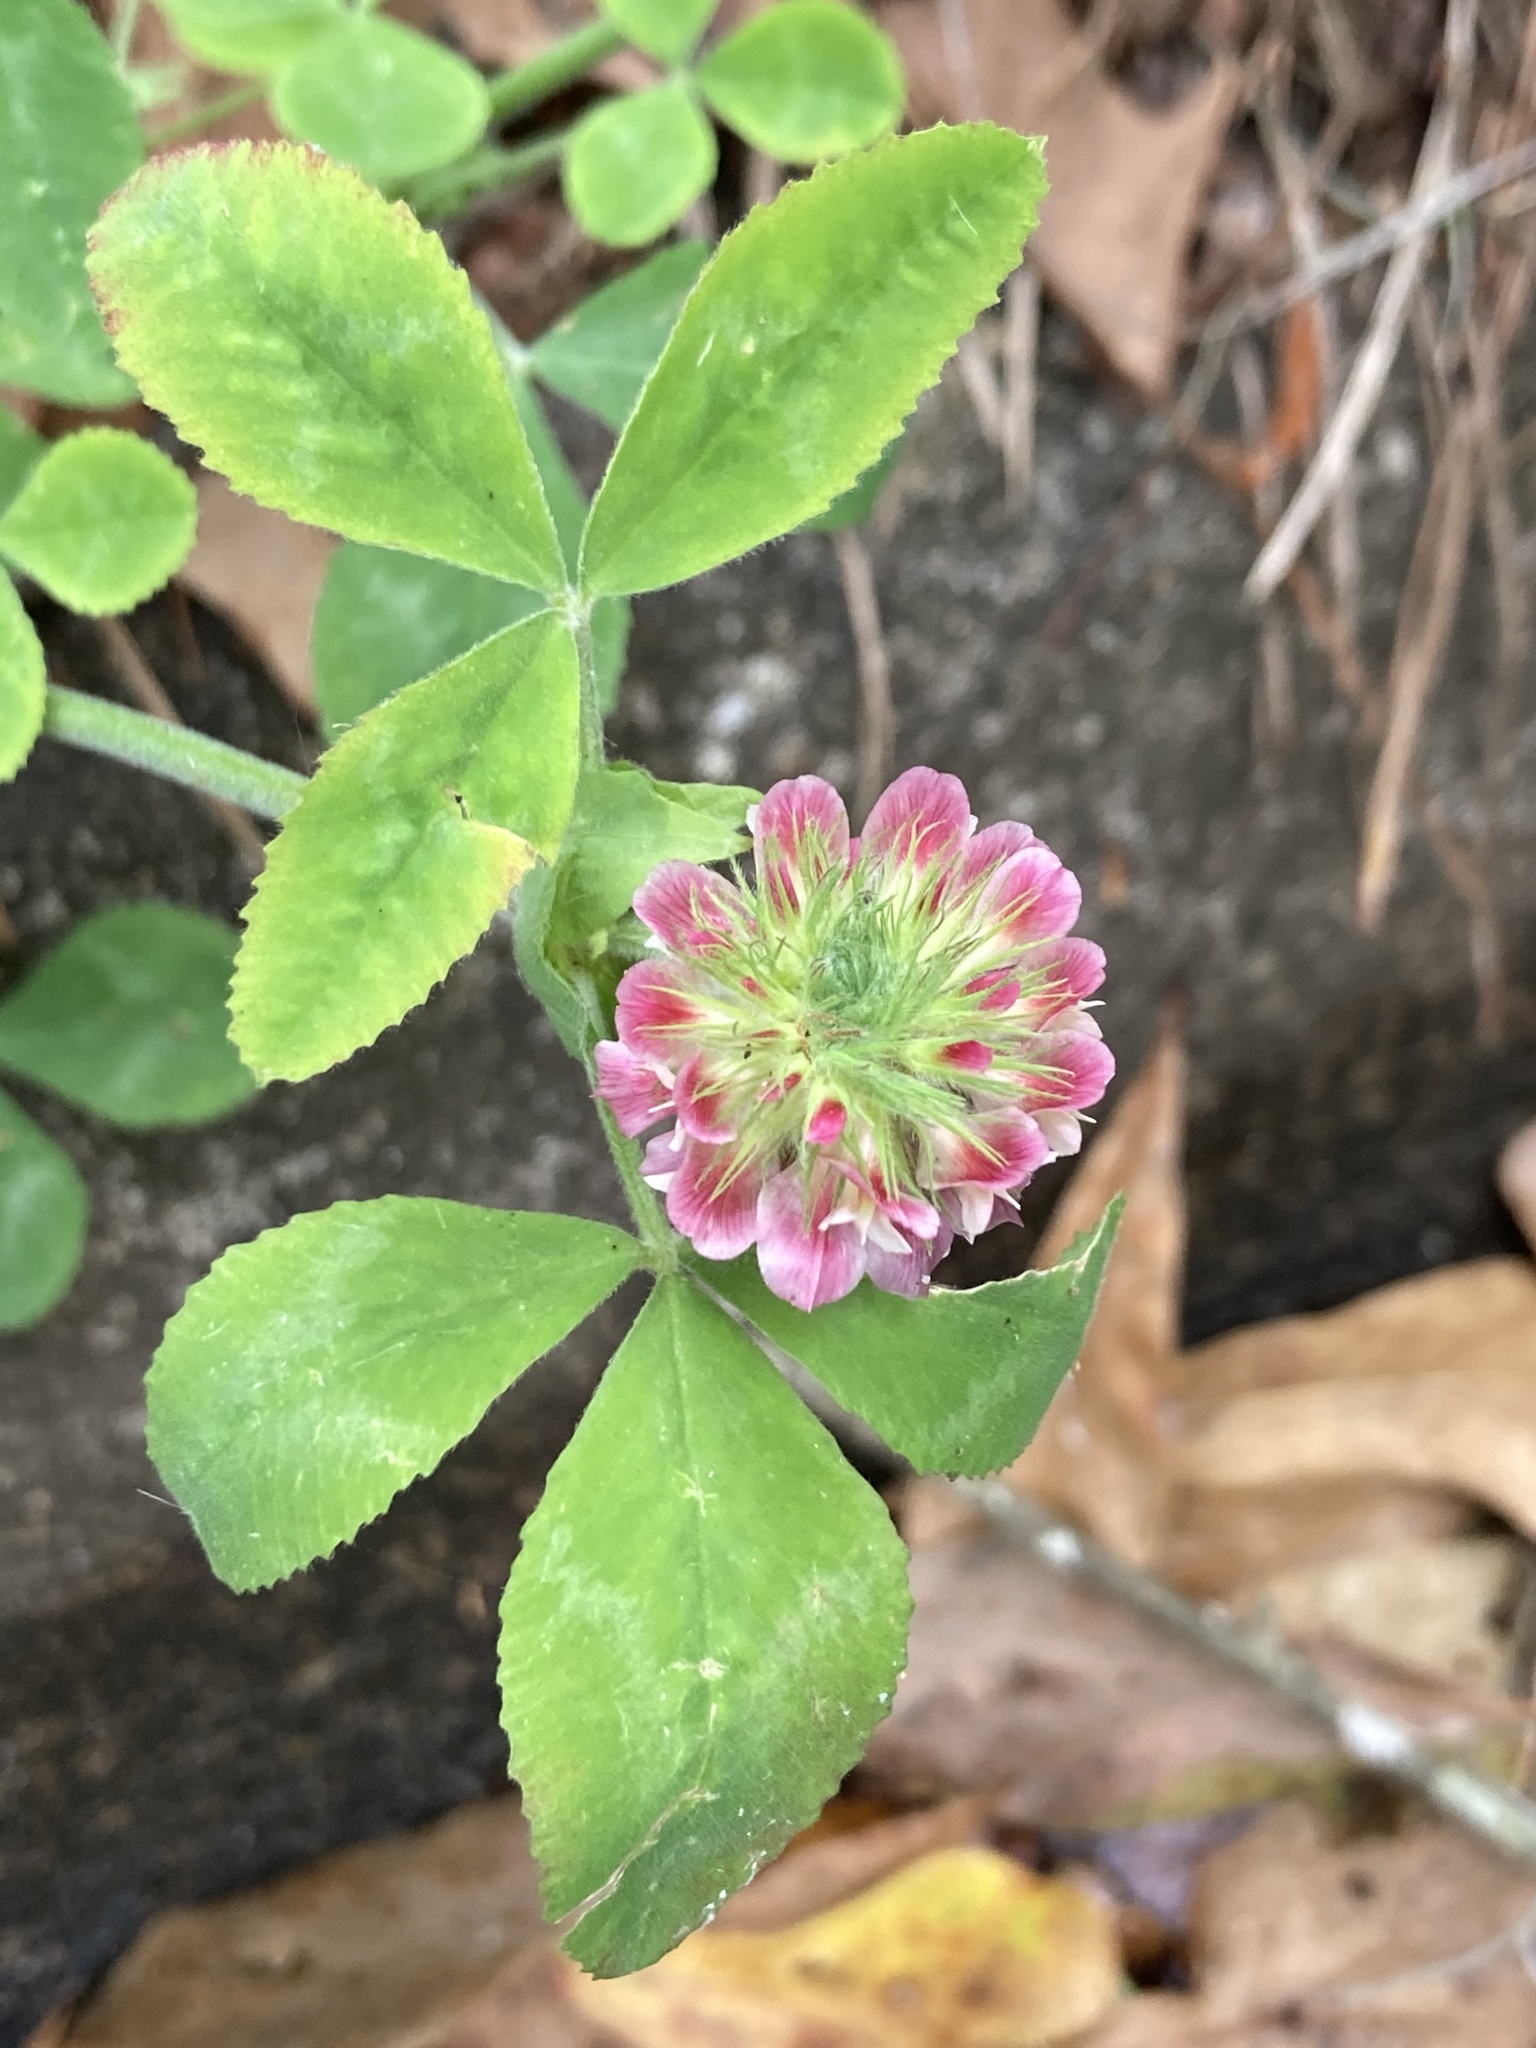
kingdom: Plantae
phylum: Tracheophyta
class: Magnoliopsida
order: Fabales
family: Fabaceae
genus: Trifolium
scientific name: Trifolium reflexum
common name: Buffalo clover
